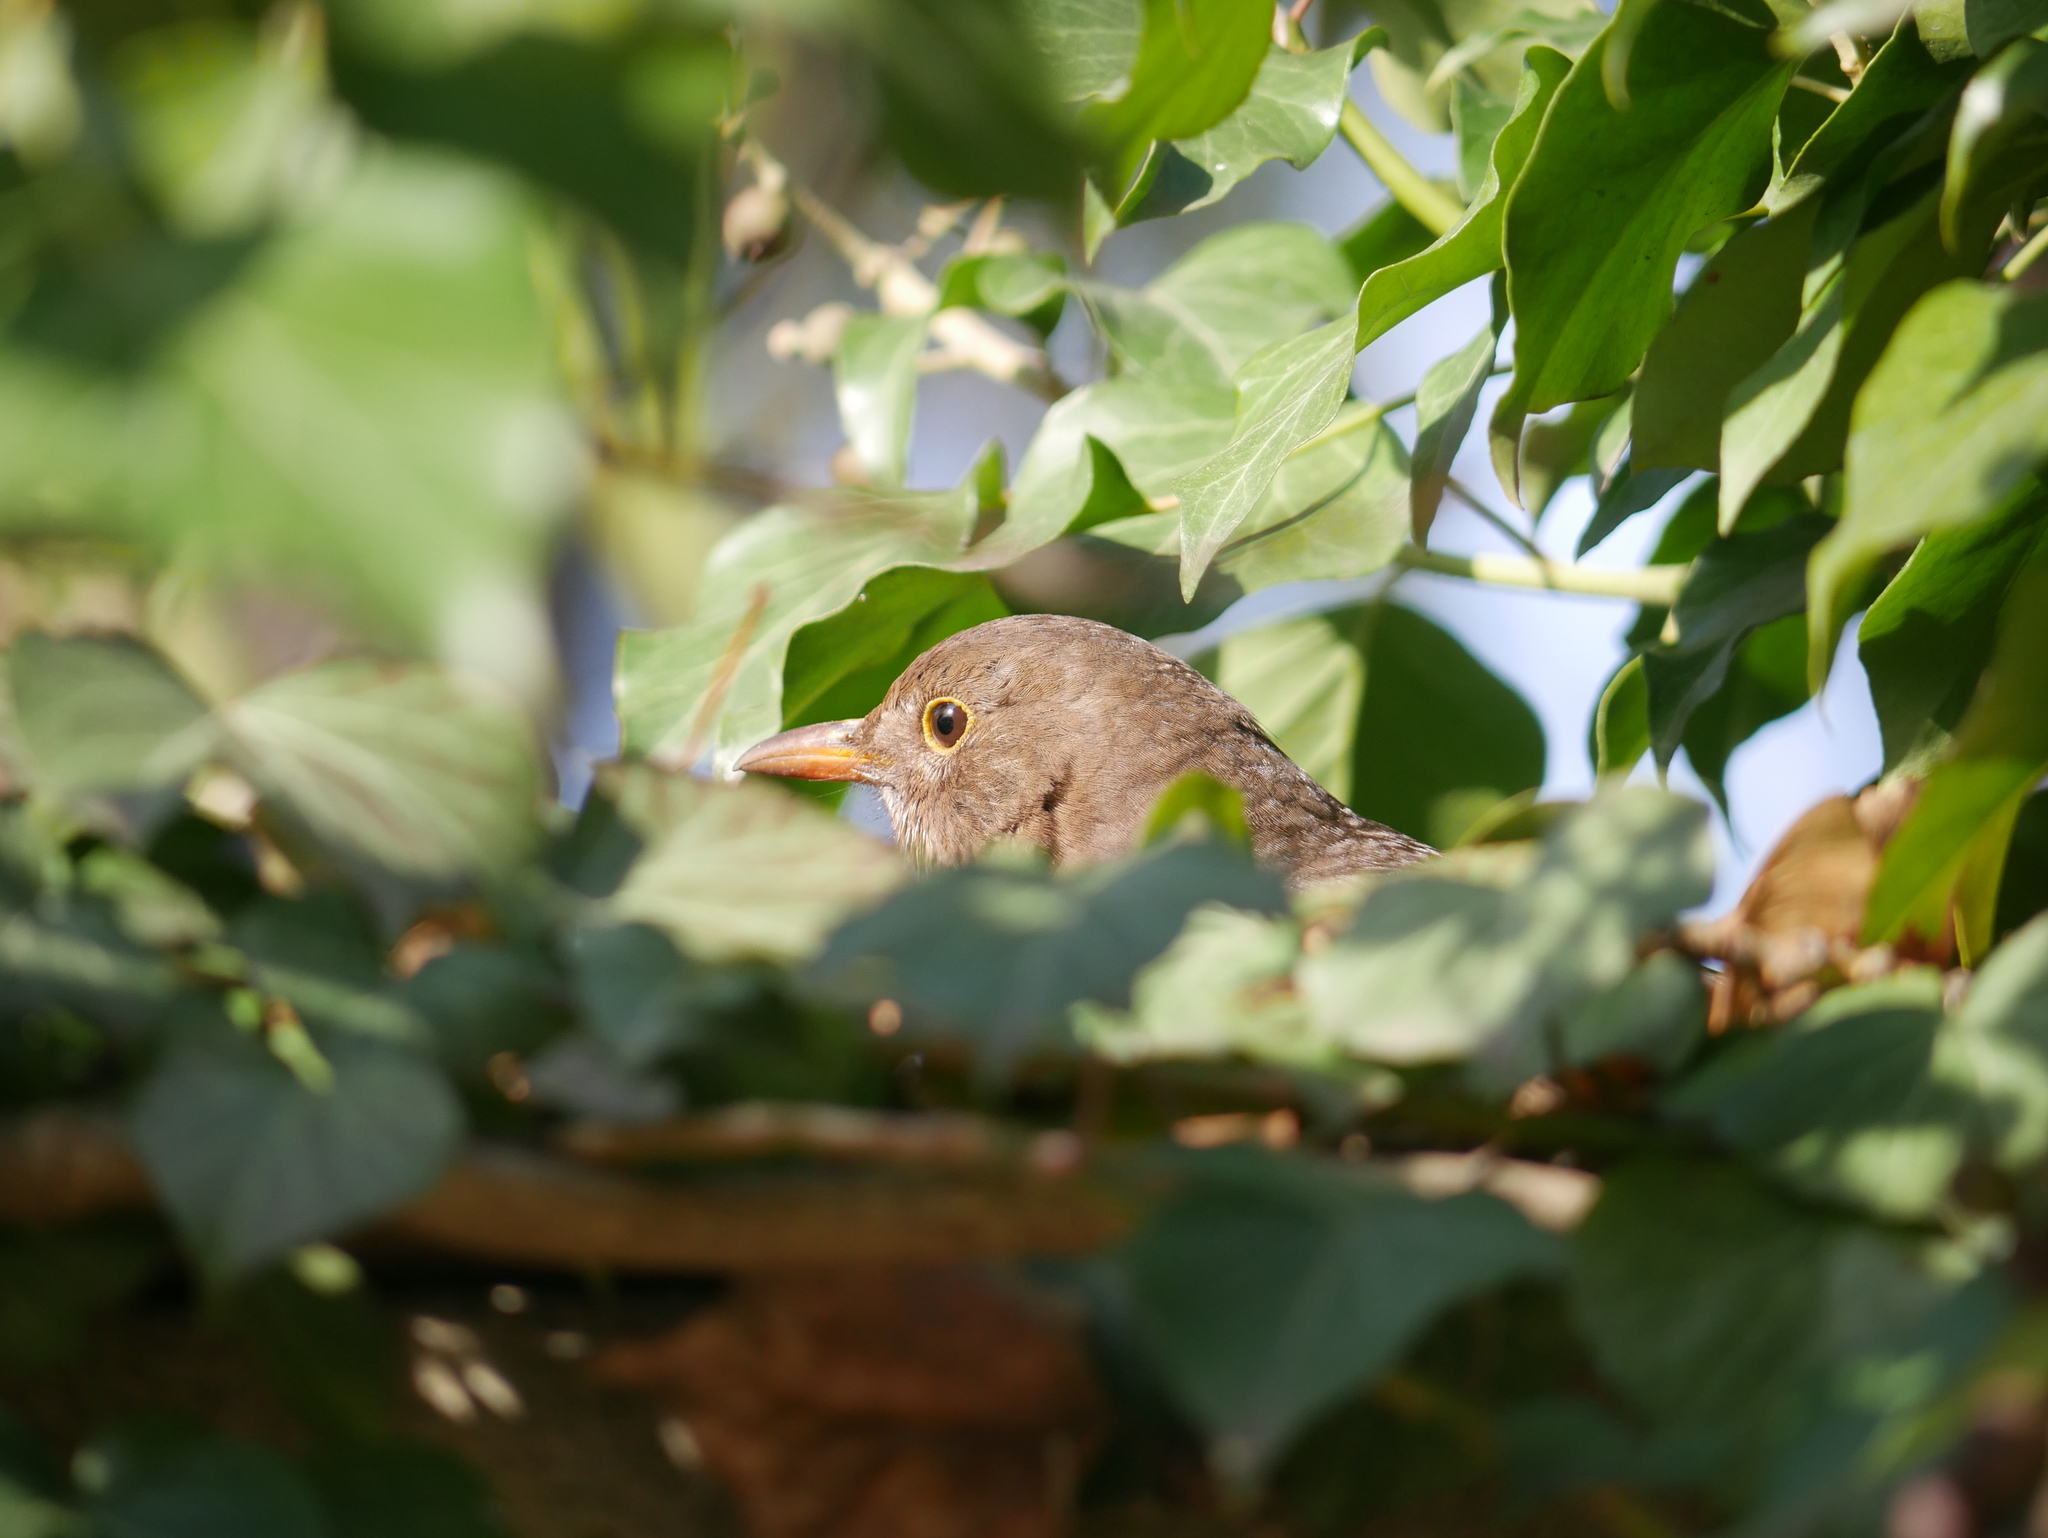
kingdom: Animalia
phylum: Chordata
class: Aves
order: Passeriformes
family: Turdidae
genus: Turdus
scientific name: Turdus merula
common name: Common blackbird
